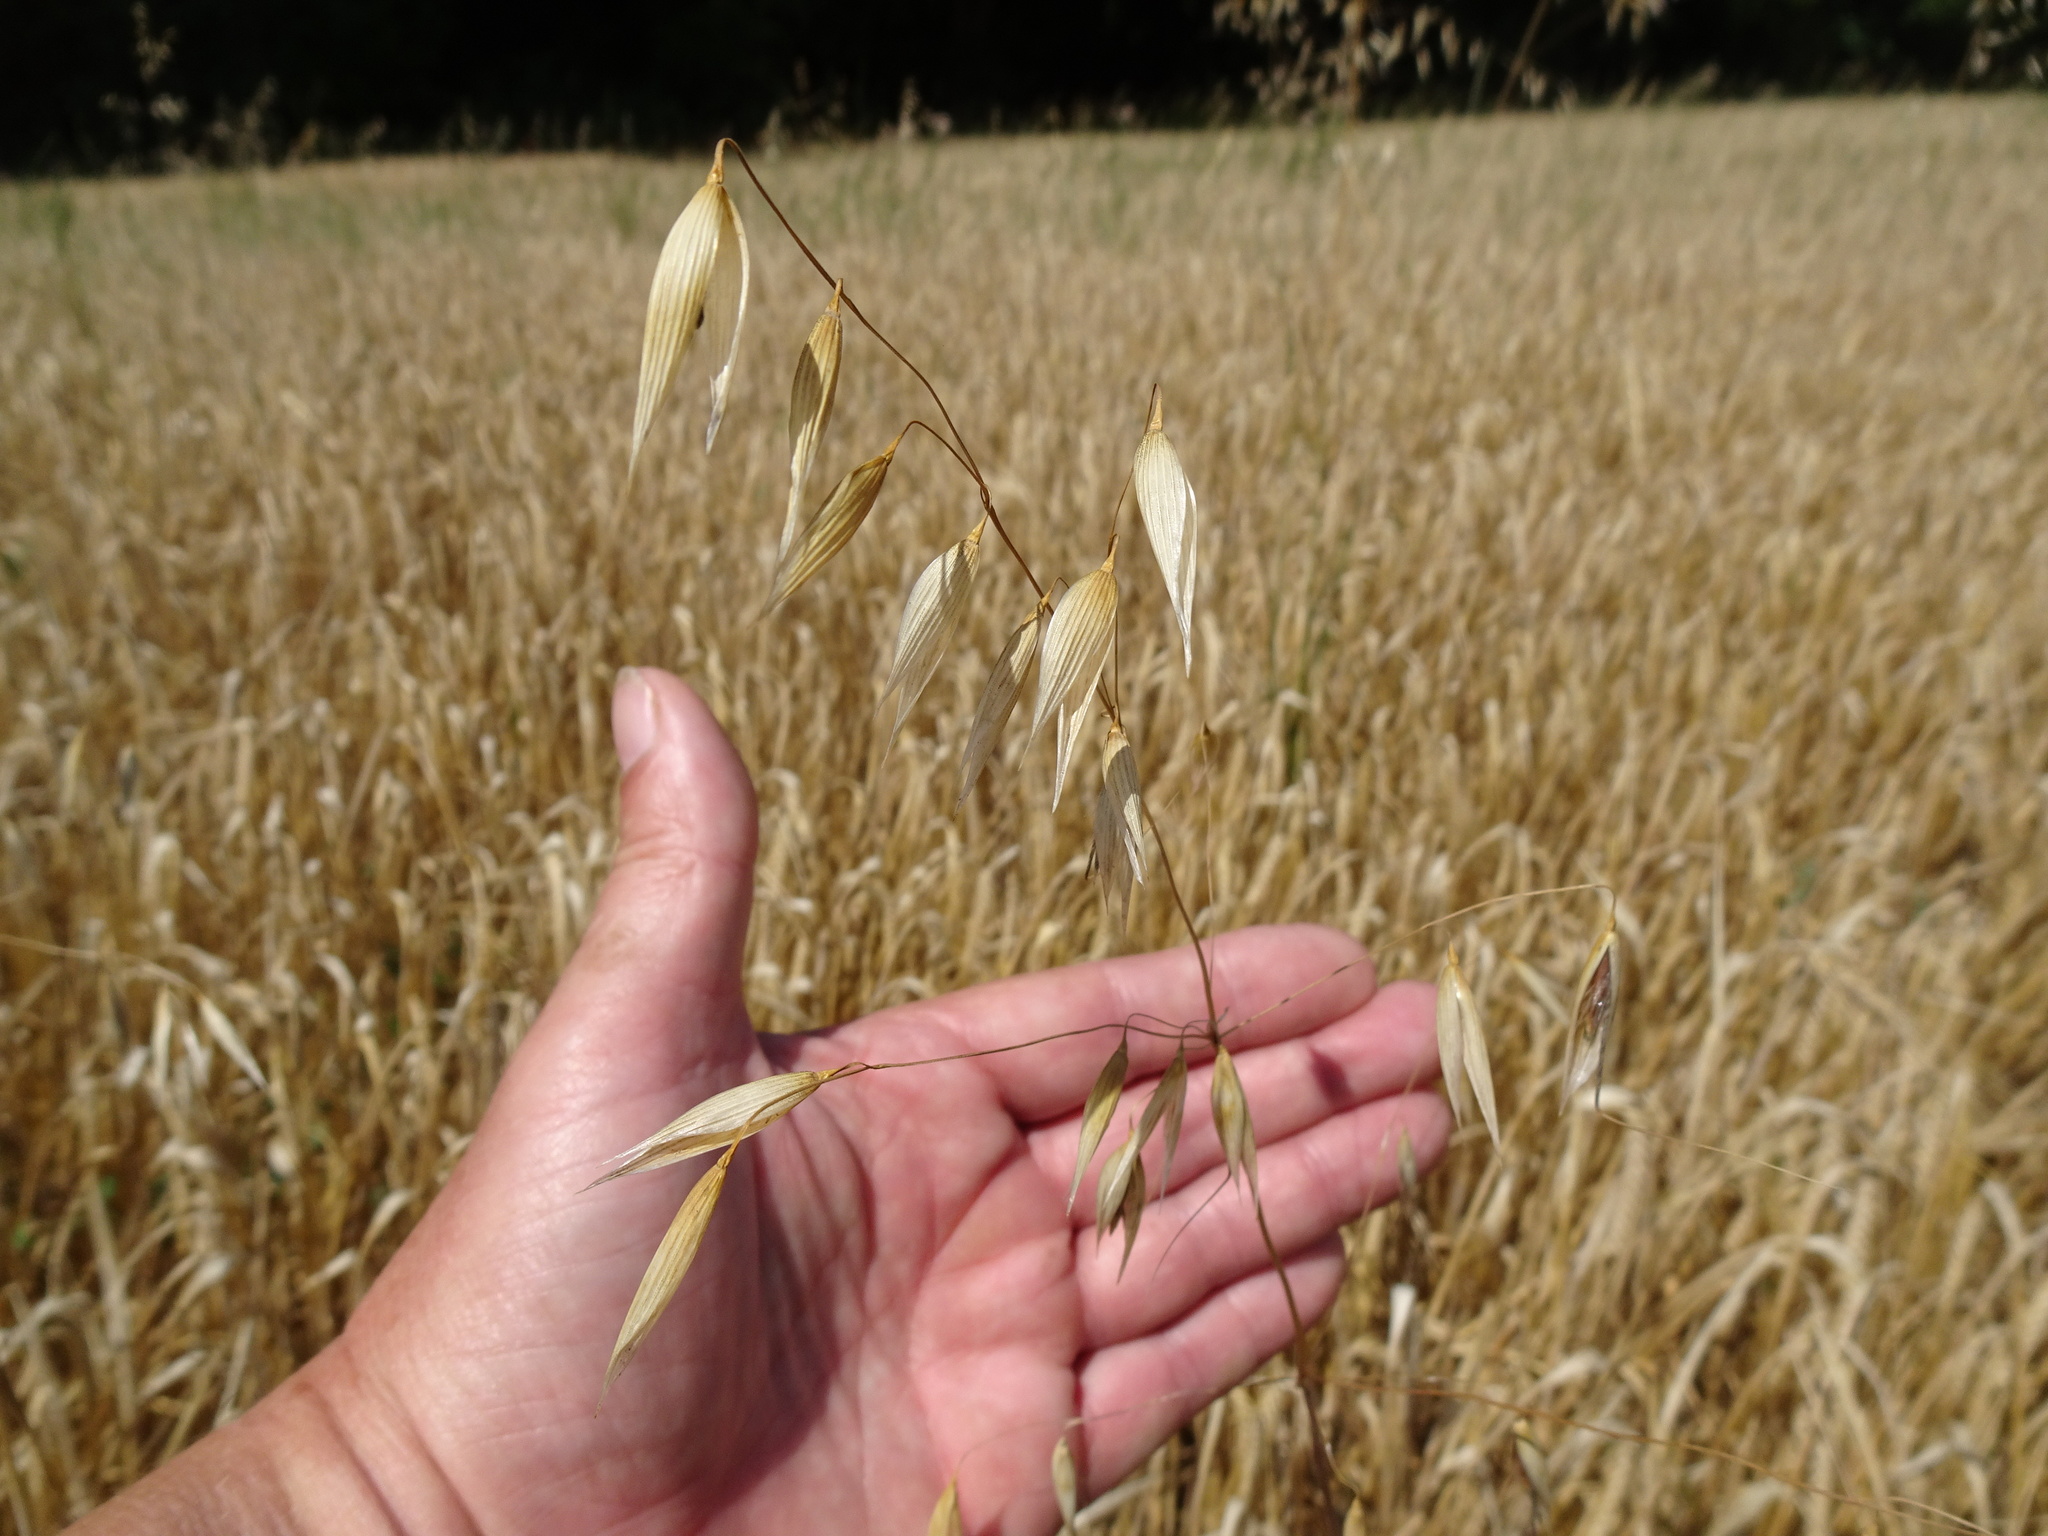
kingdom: Plantae
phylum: Tracheophyta
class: Liliopsida
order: Poales
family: Poaceae
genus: Avena
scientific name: Avena fatua
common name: Wild oat
